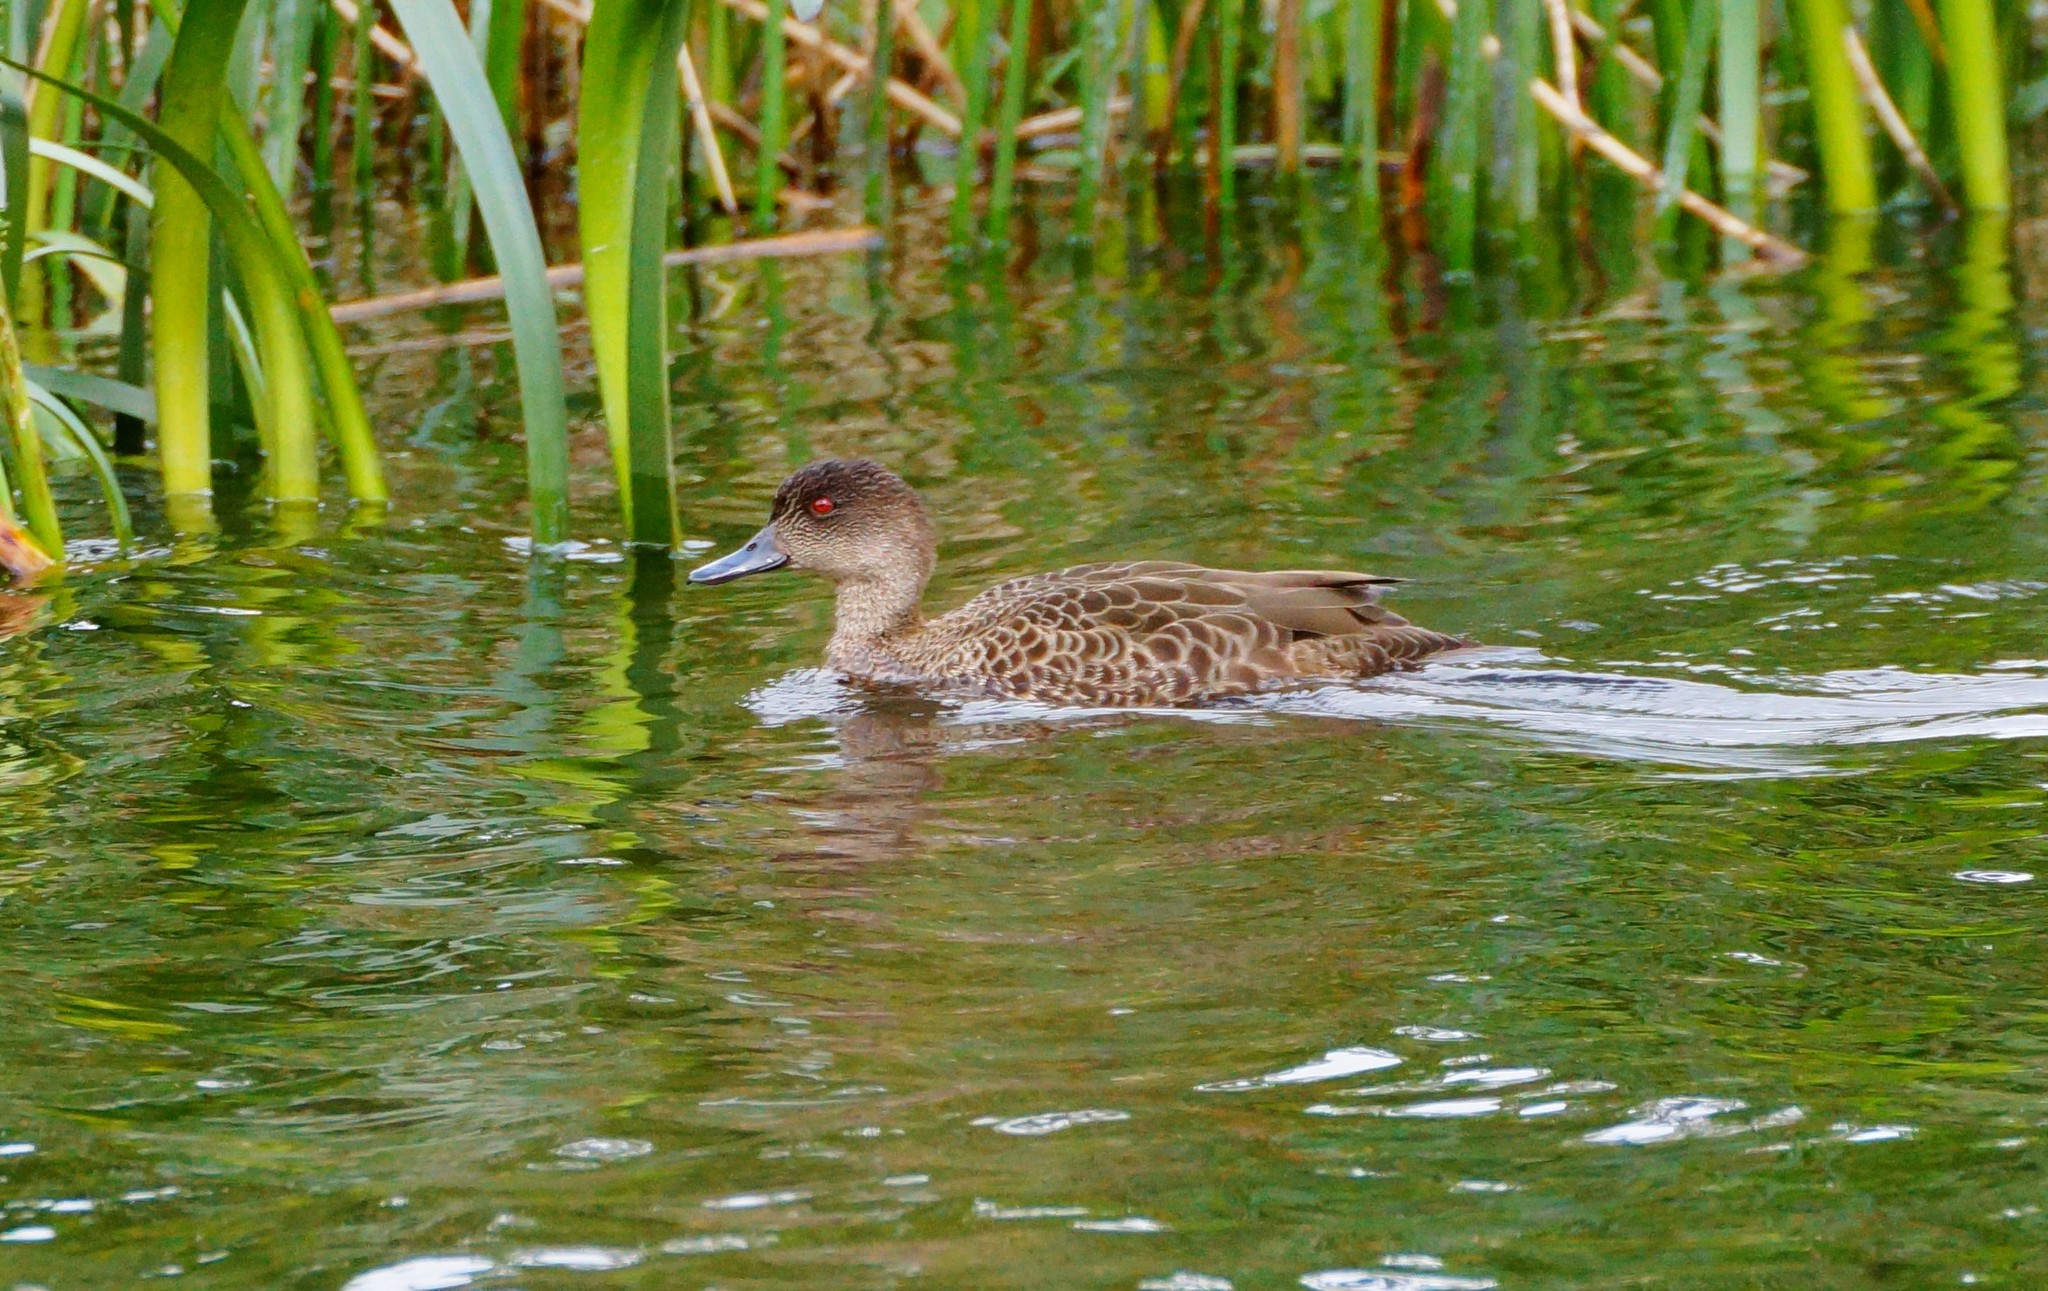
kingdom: Animalia
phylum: Chordata
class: Aves
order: Anseriformes
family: Anatidae
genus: Anas
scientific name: Anas castanea
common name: Chestnut teal
